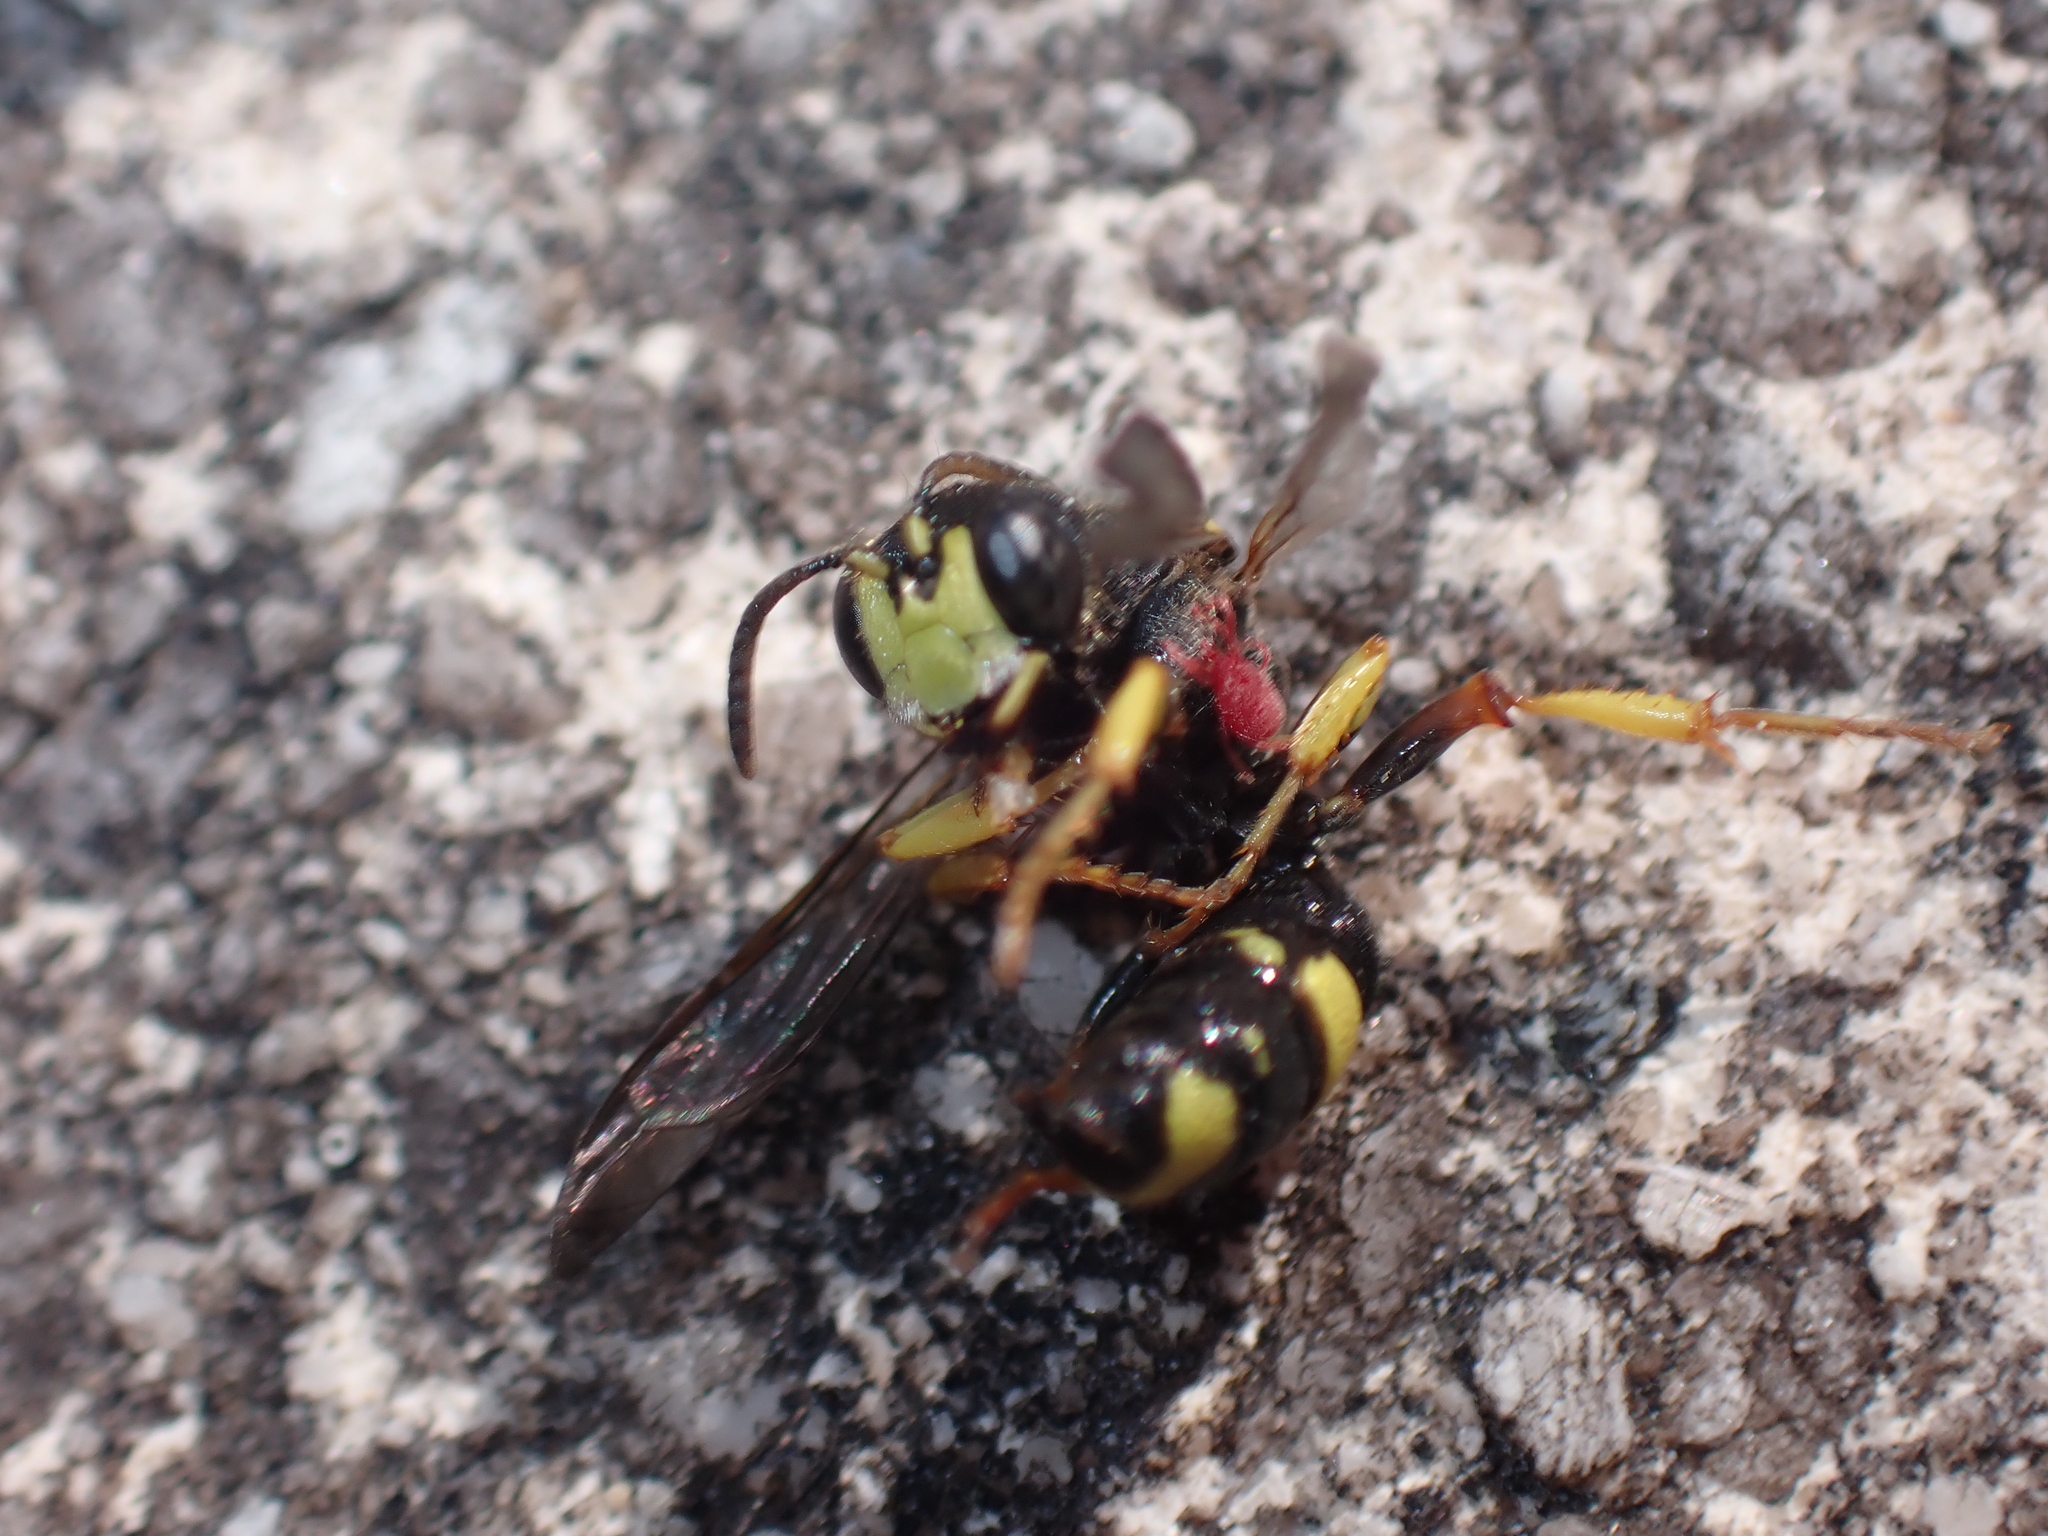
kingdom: Animalia
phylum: Arthropoda
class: Insecta
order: Hymenoptera
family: Crabronidae
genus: Philanthus
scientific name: Philanthus triangulum
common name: Bee wolf
